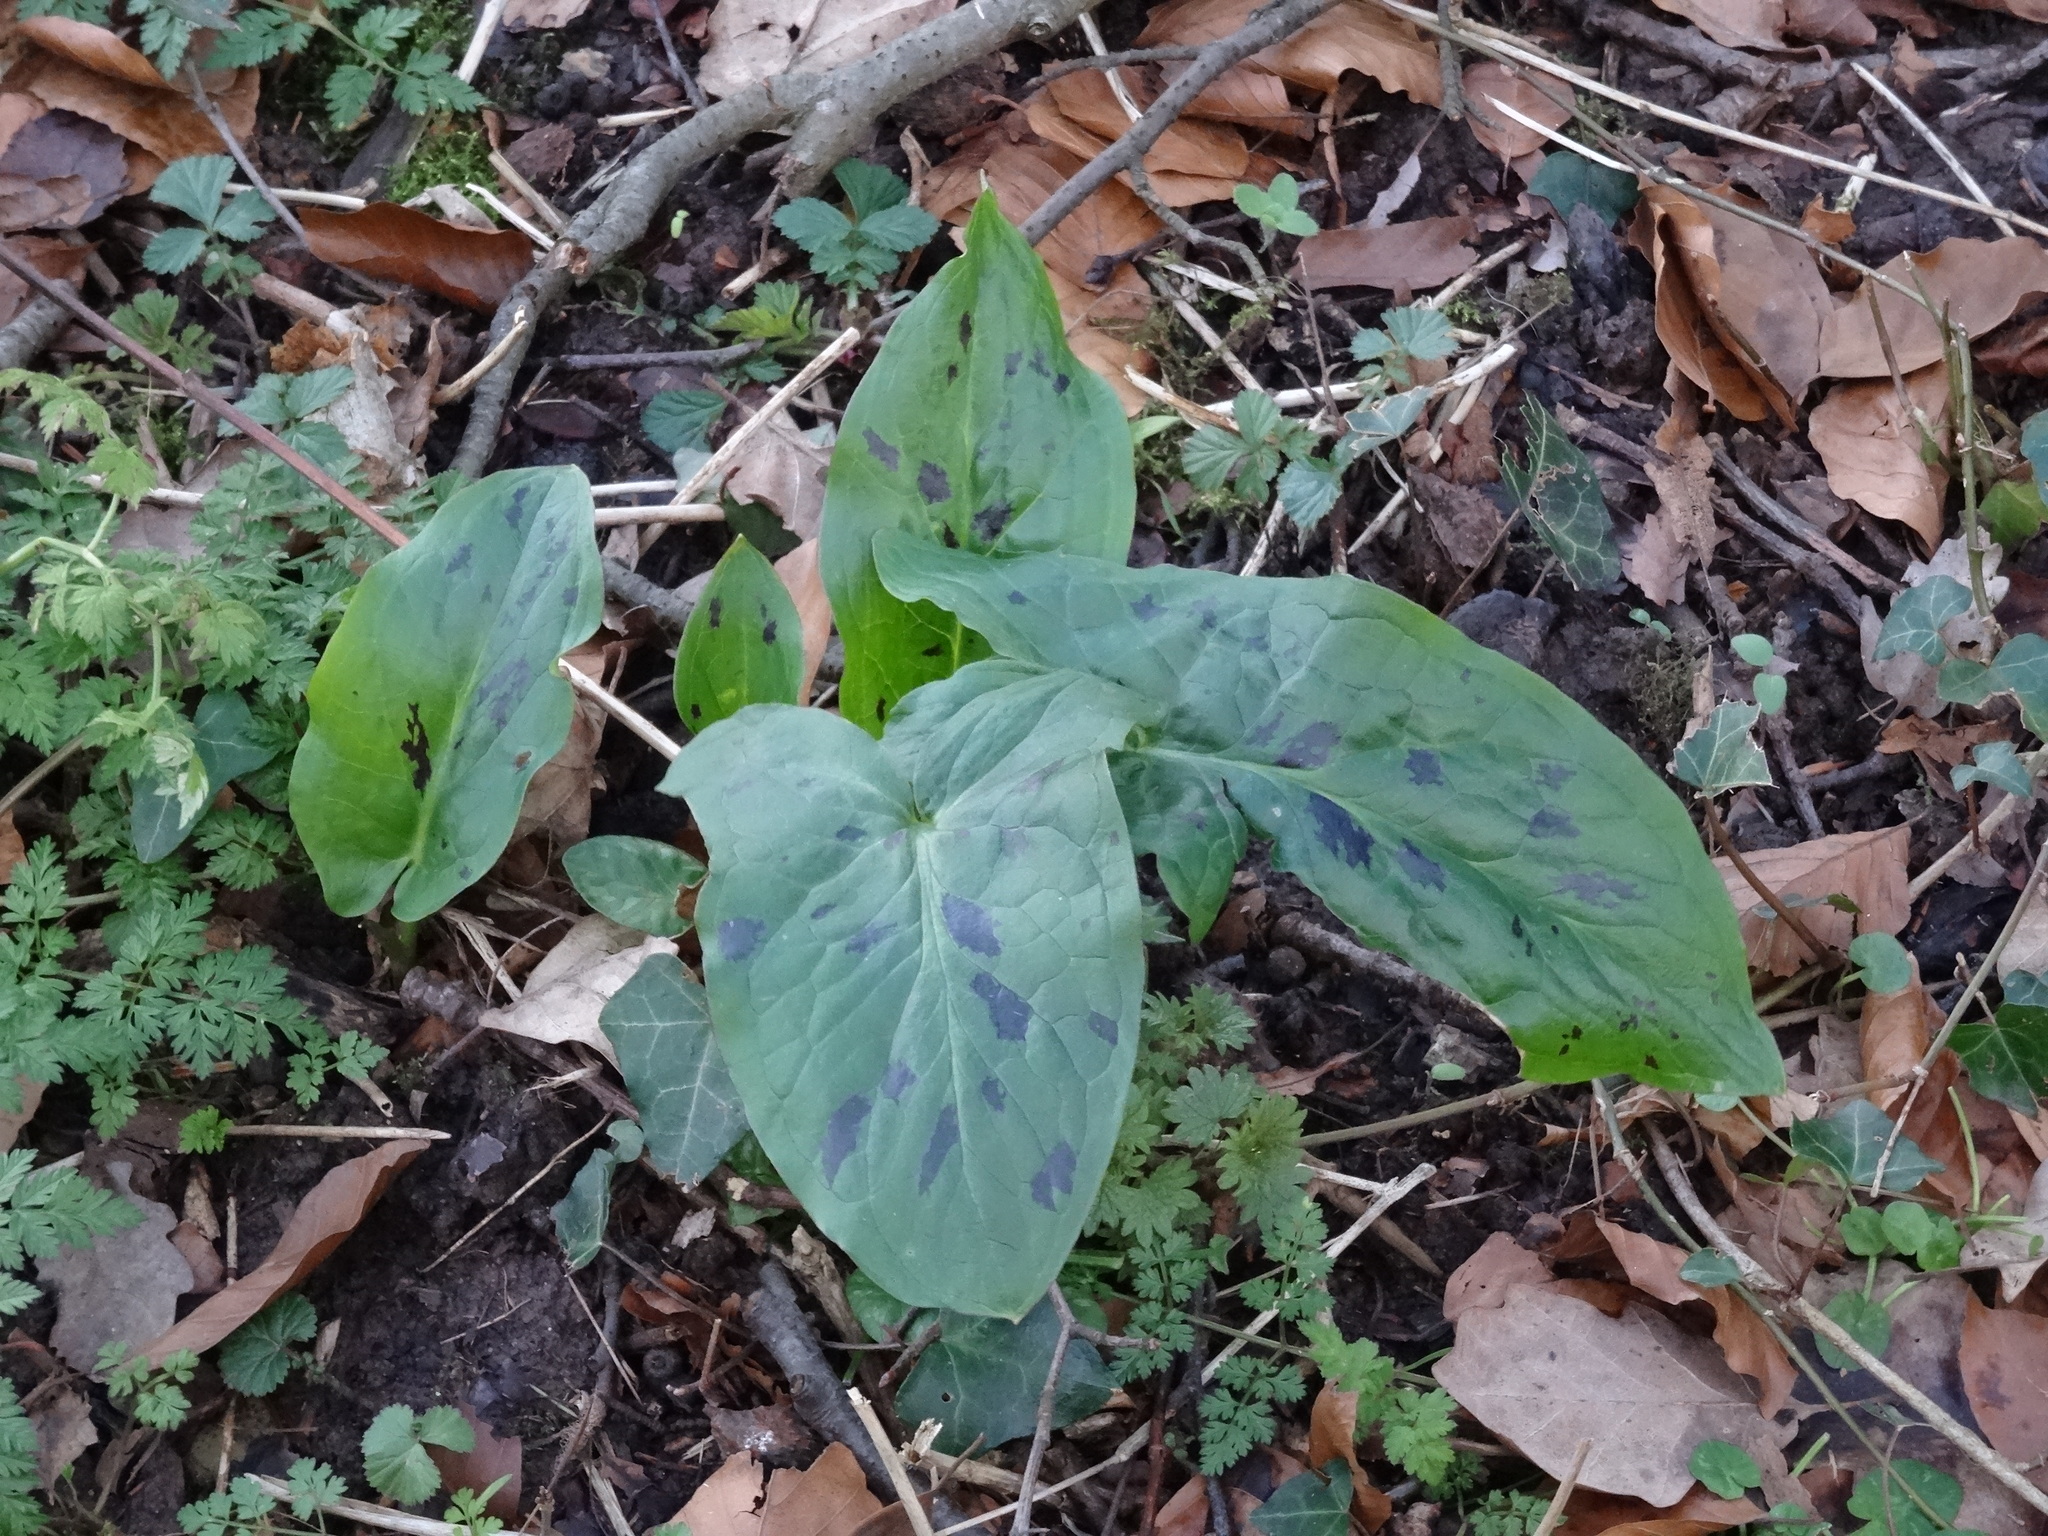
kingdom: Plantae
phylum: Tracheophyta
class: Liliopsida
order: Alismatales
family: Araceae
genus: Arum
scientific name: Arum maculatum
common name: Lords-and-ladies
